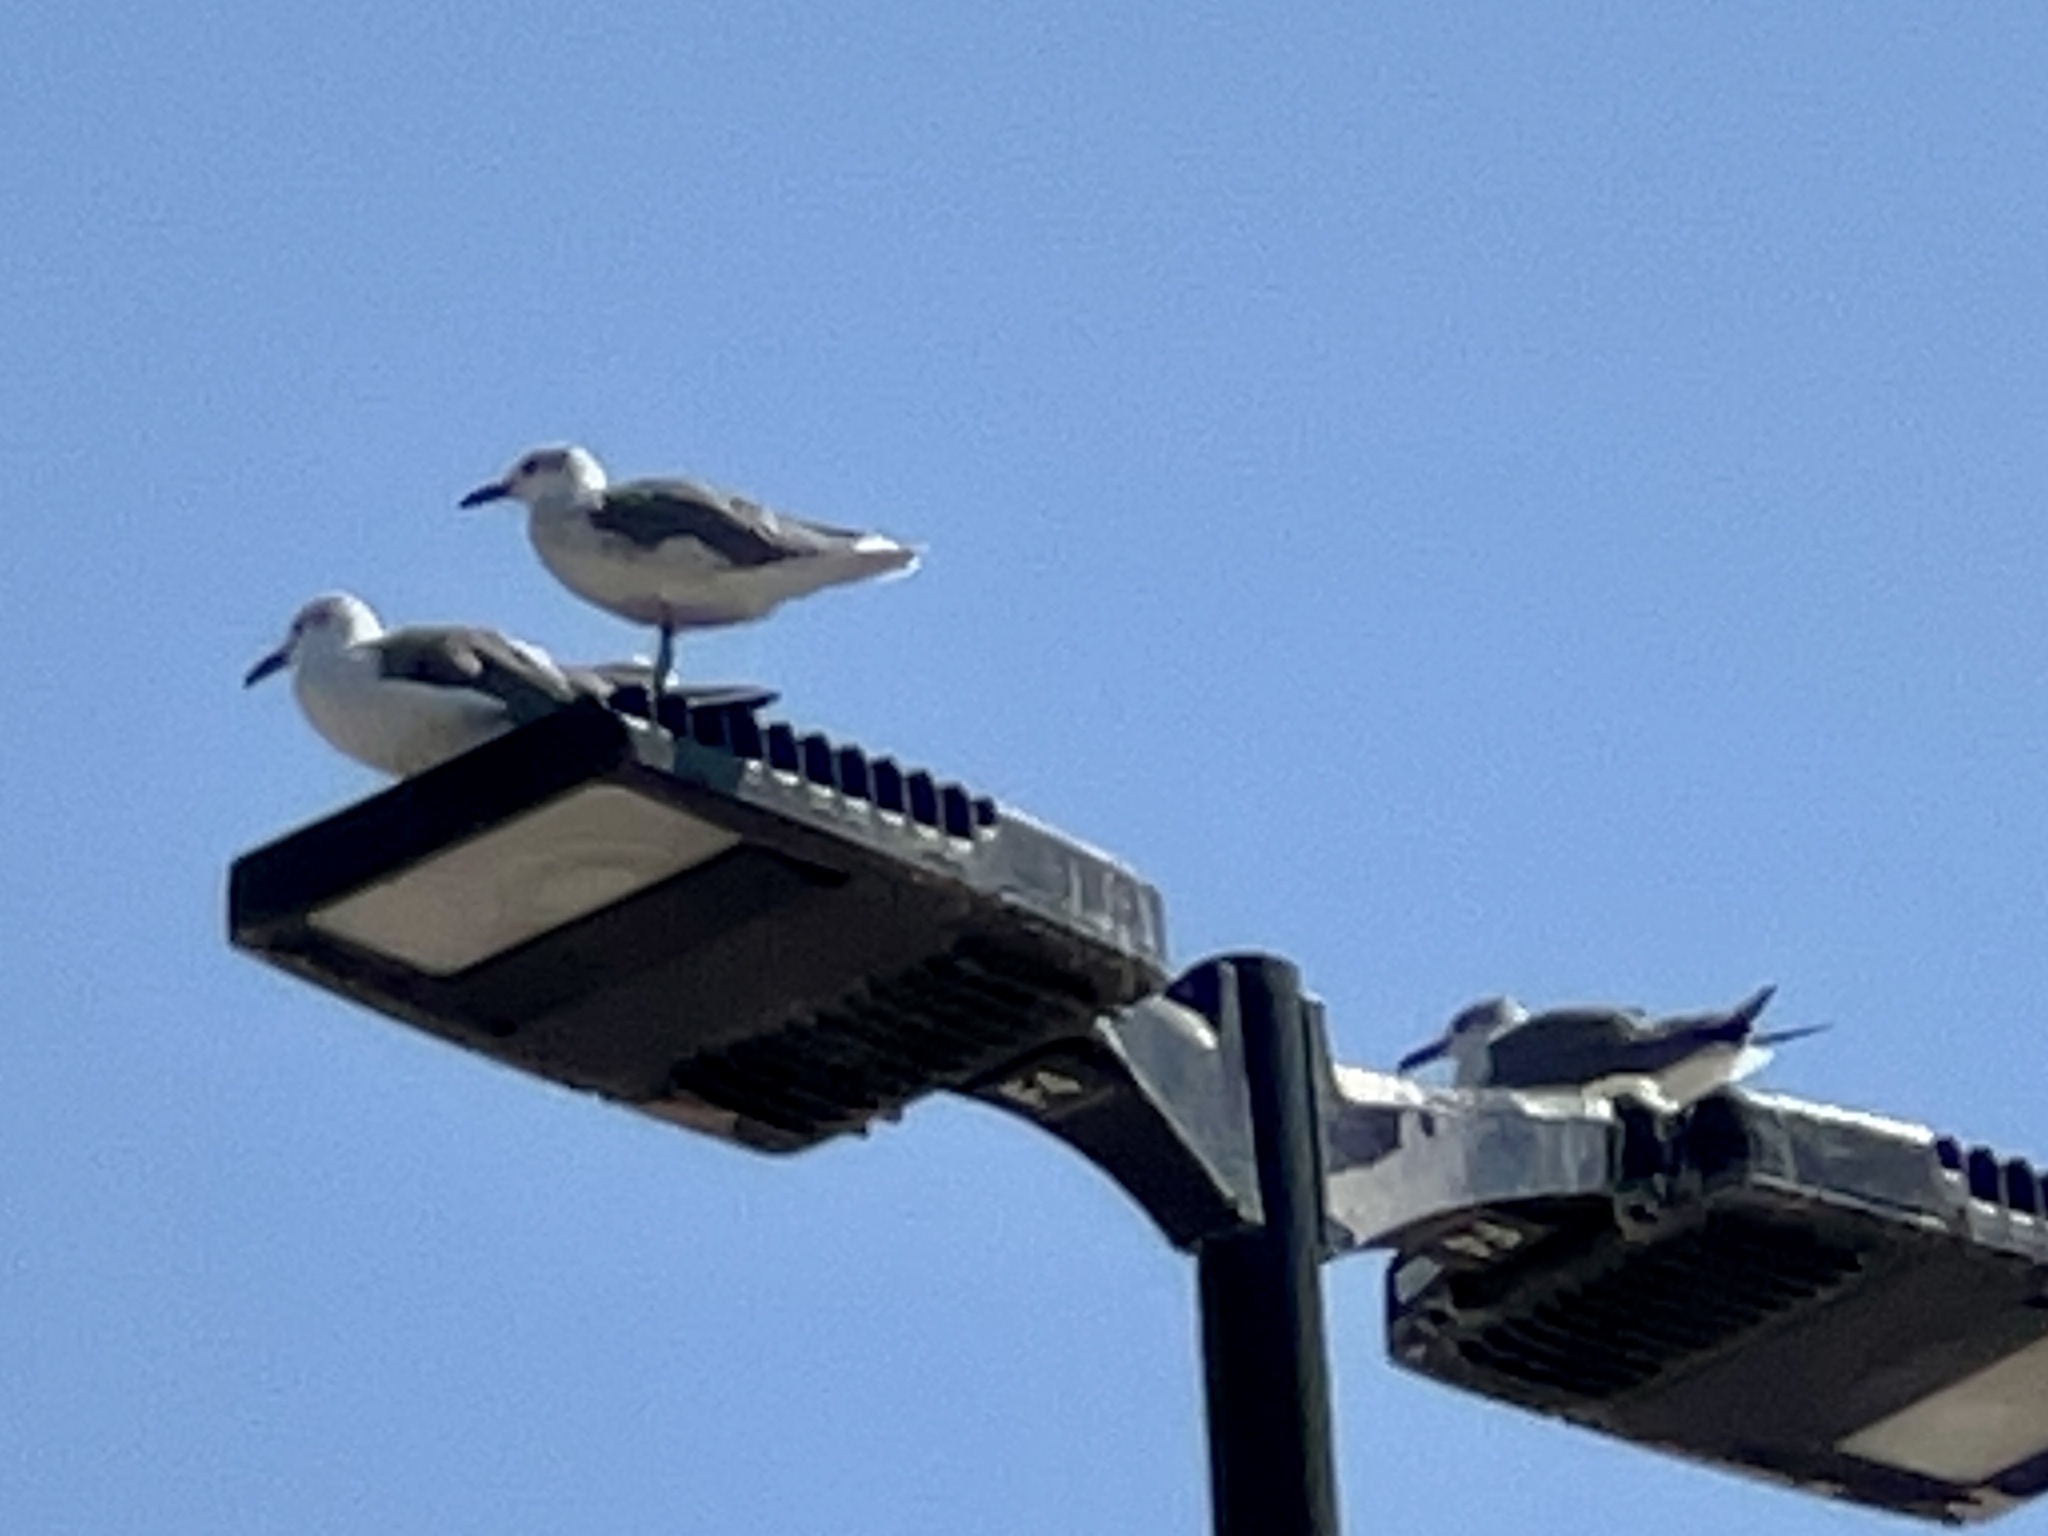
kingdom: Animalia
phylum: Chordata
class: Aves
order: Charadriiformes
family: Laridae
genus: Leucophaeus
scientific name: Leucophaeus atricilla
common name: Laughing gull
